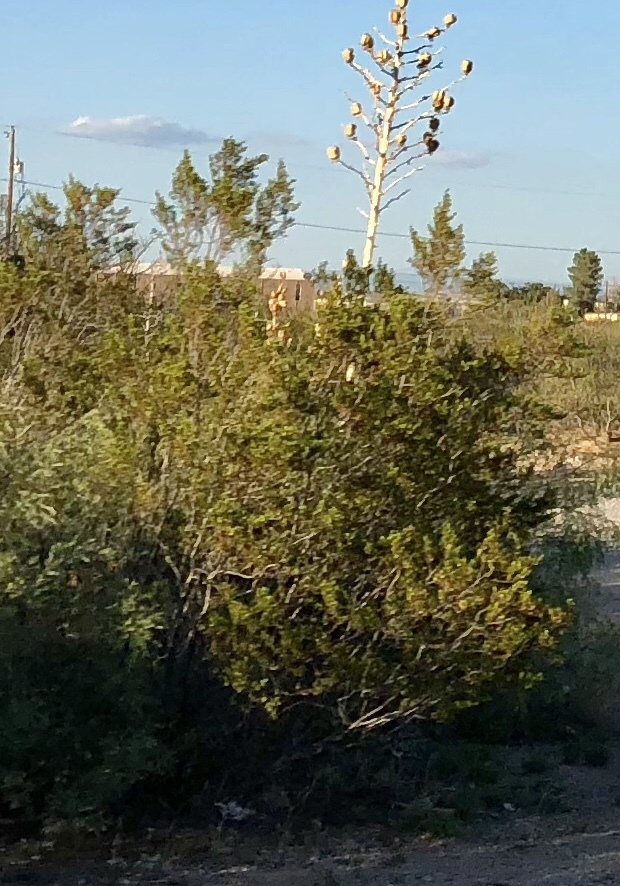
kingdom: Plantae
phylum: Tracheophyta
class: Magnoliopsida
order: Zygophyllales
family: Zygophyllaceae
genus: Larrea
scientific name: Larrea tridentata
